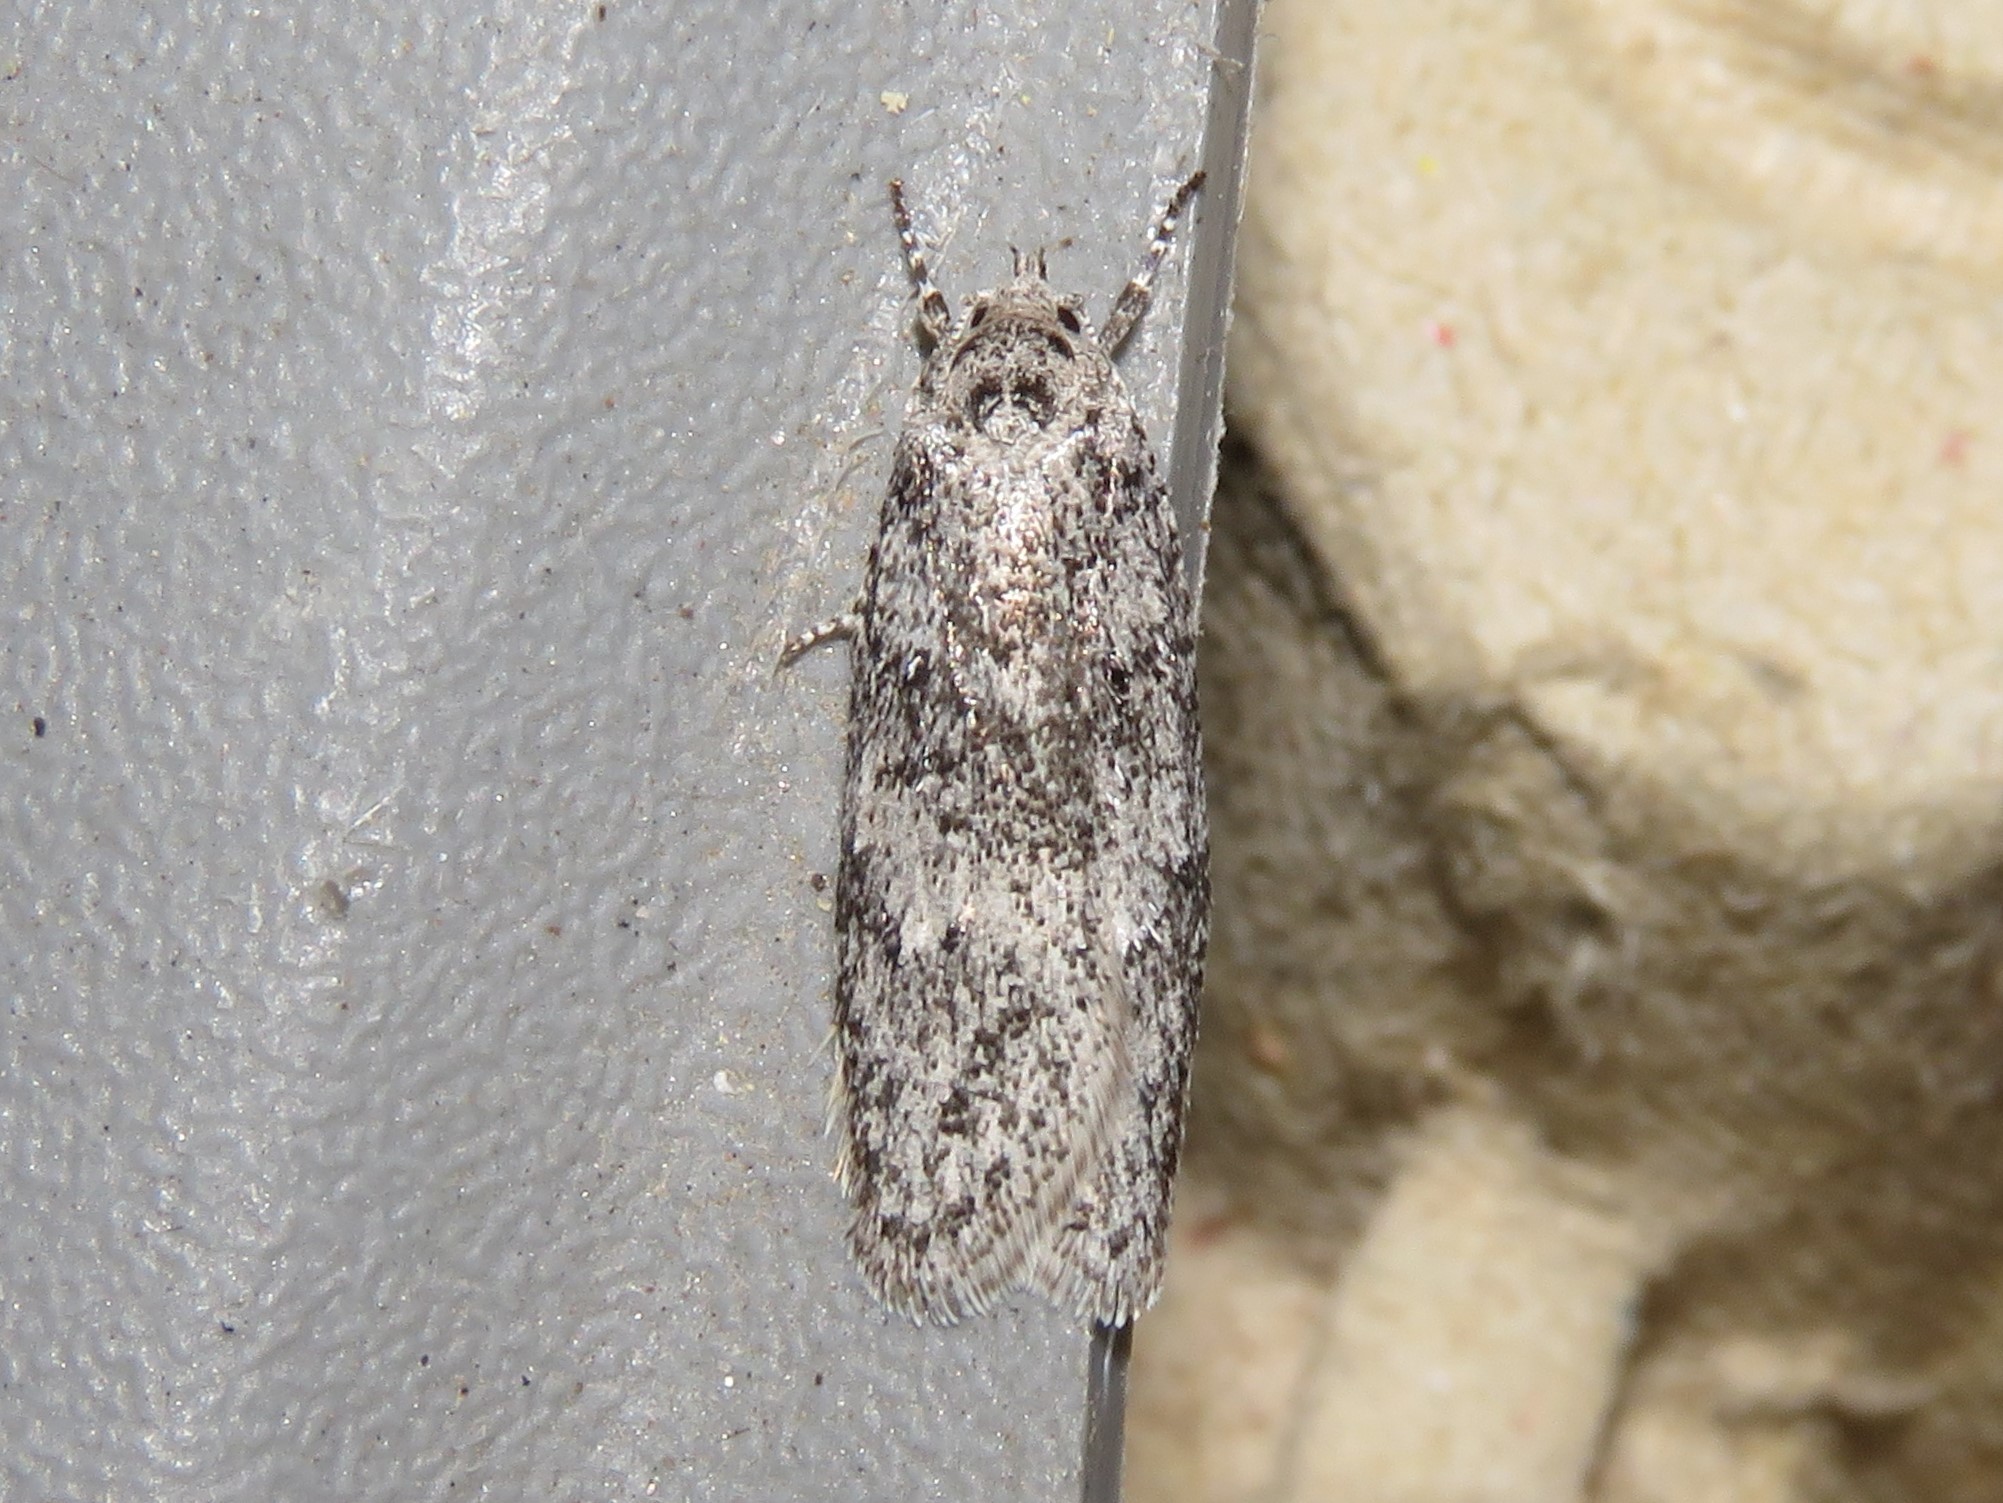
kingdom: Animalia
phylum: Arthropoda
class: Insecta
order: Lepidoptera
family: Depressariidae
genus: Semioscopis
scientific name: Semioscopis inornata
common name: Poplar micromoth
